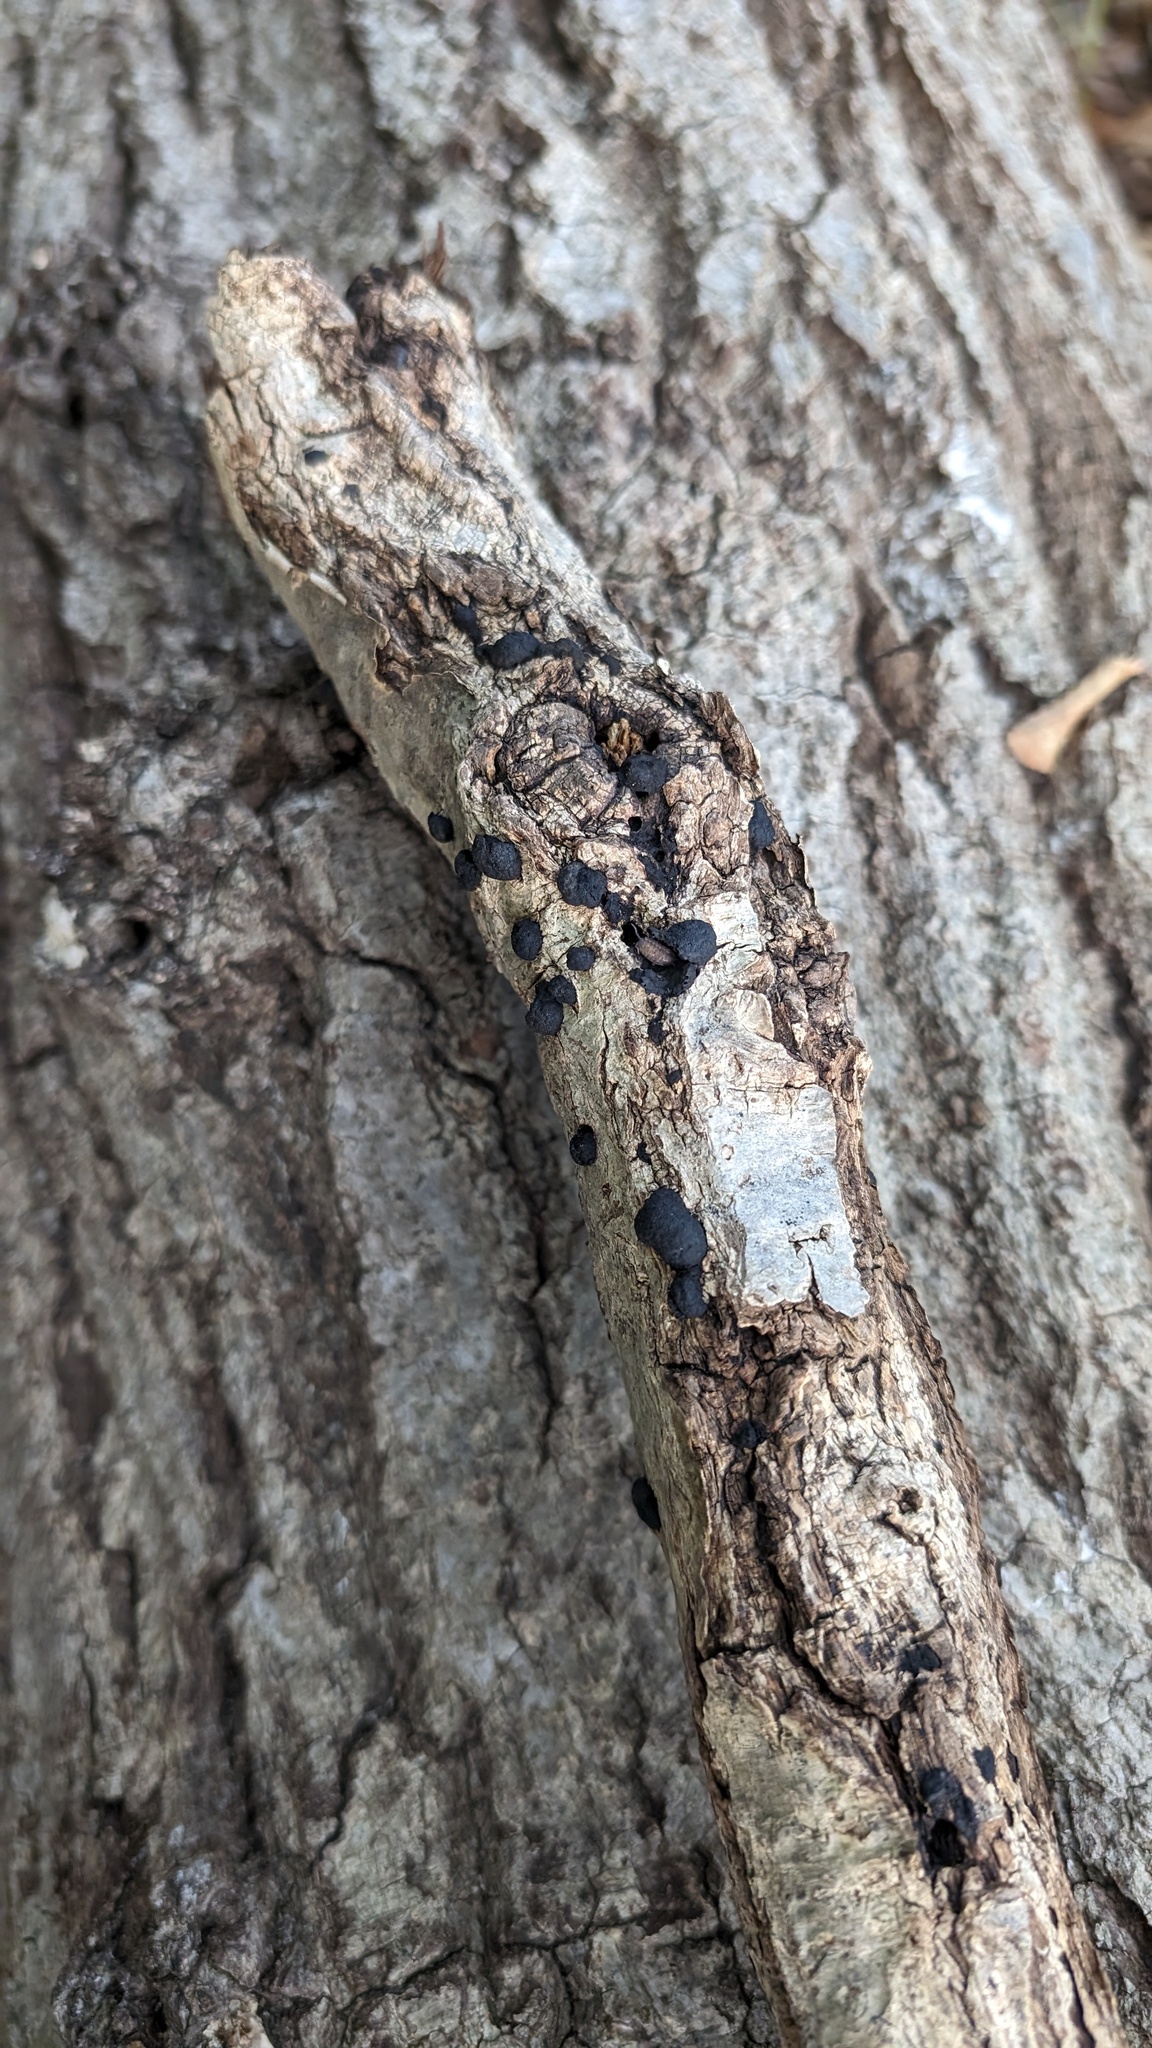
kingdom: Fungi
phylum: Ascomycota
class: Sordariomycetes
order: Xylariales
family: Hypoxylaceae
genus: Annulohypoxylon
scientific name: Annulohypoxylon truncatum
